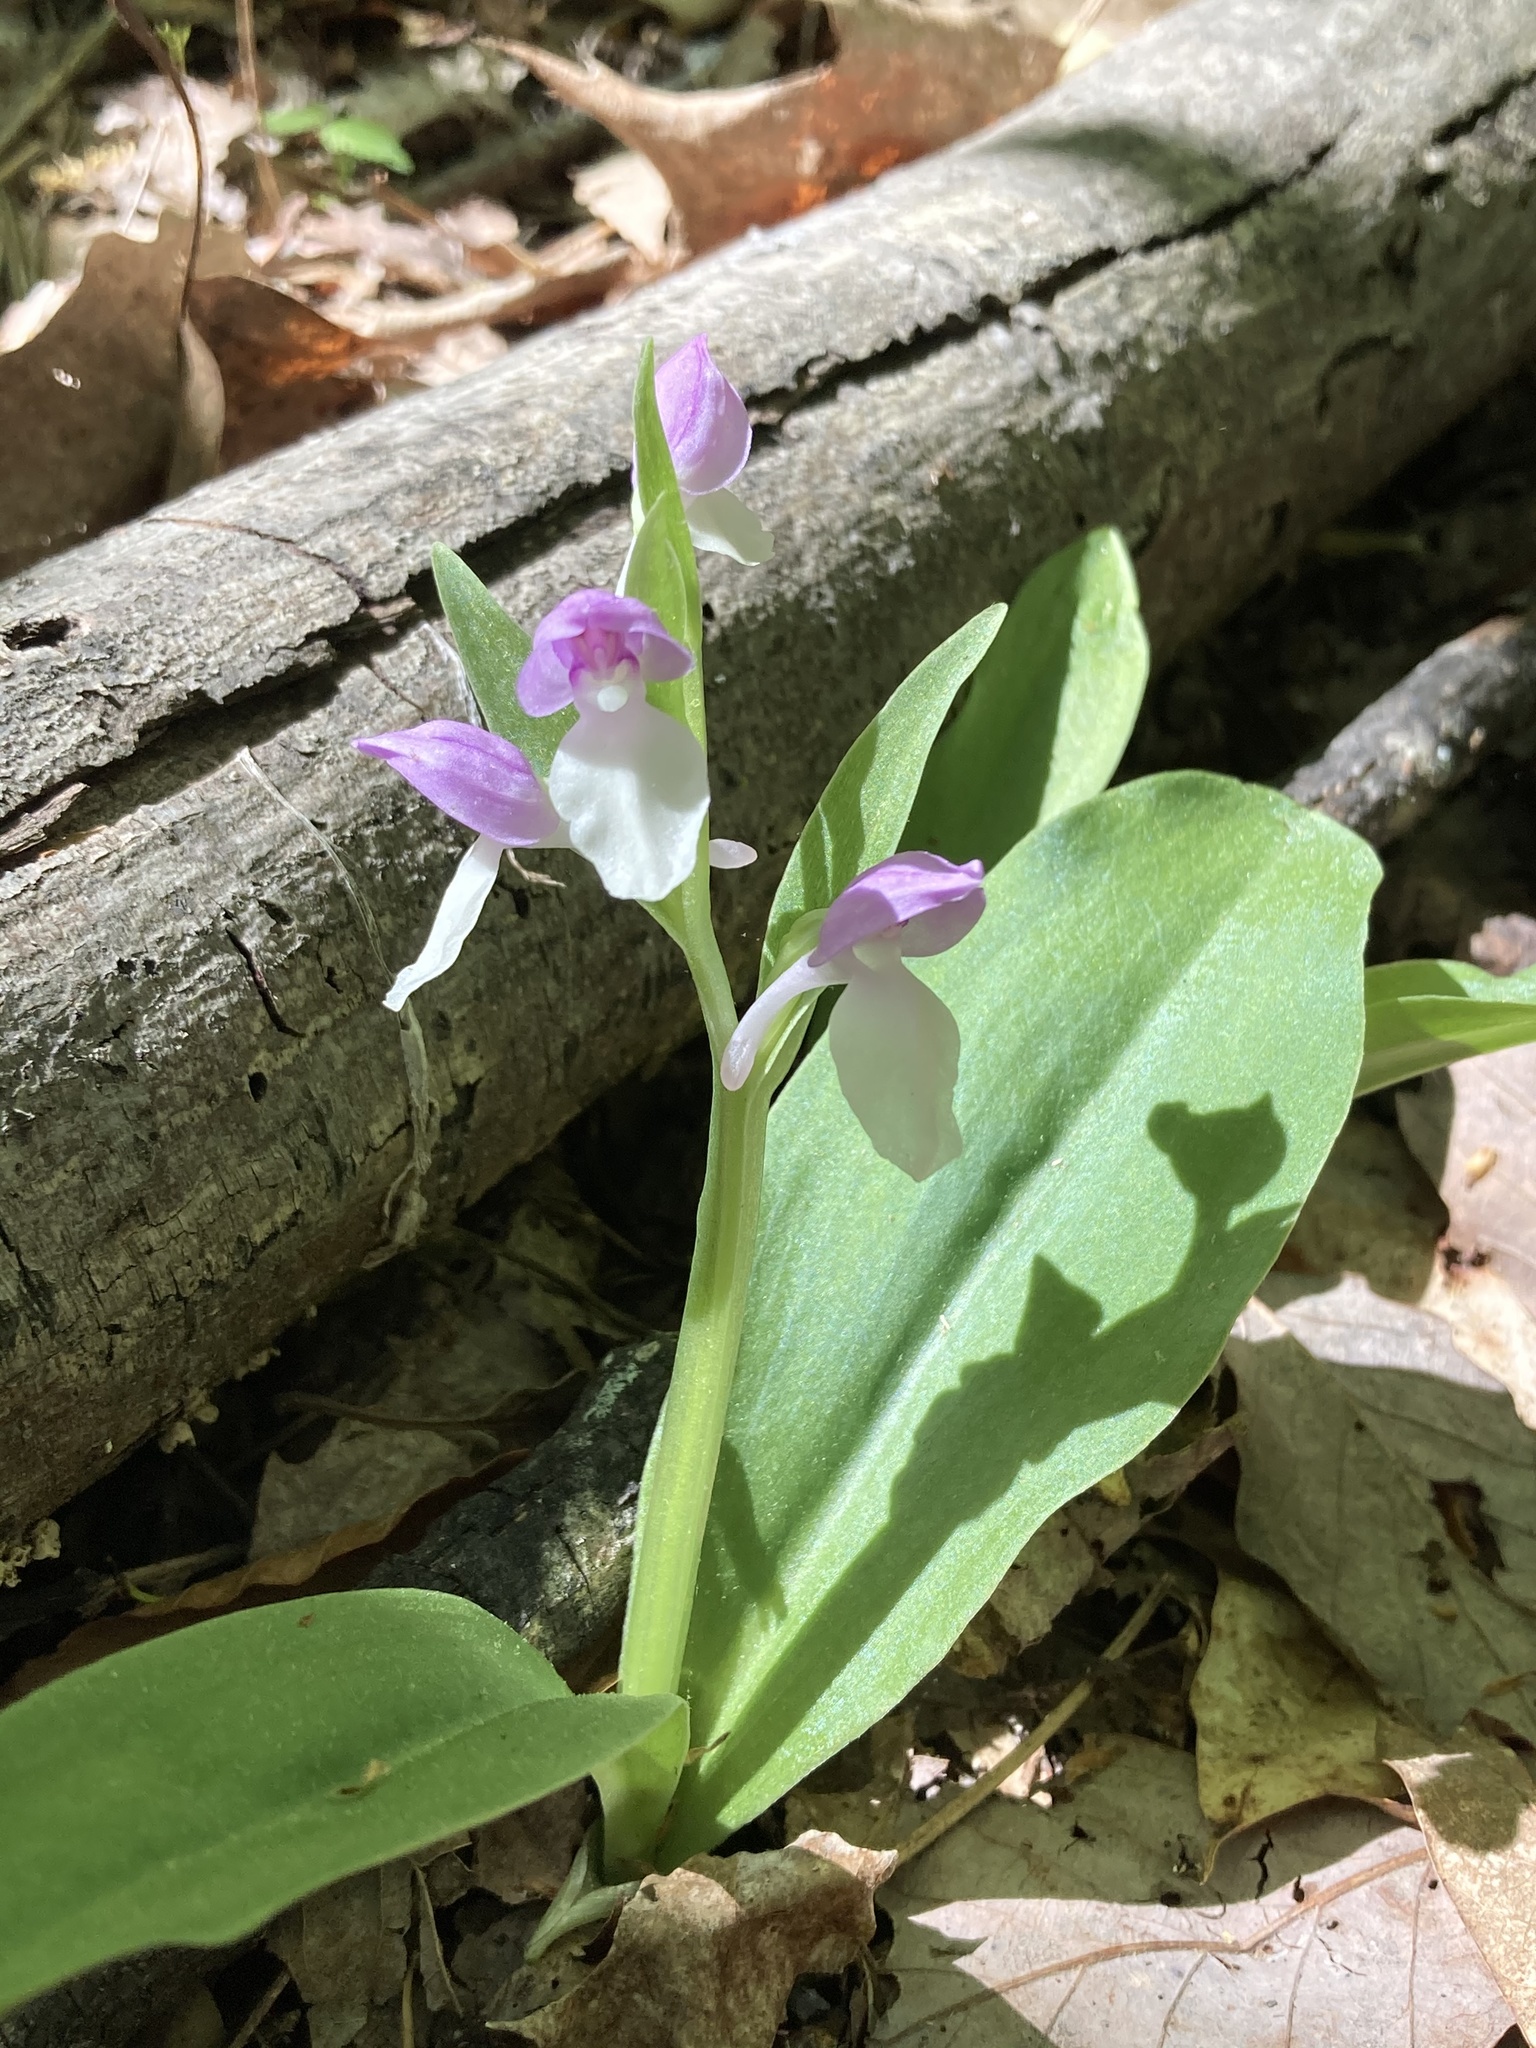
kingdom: Plantae
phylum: Tracheophyta
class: Liliopsida
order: Asparagales
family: Orchidaceae
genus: Galearis
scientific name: Galearis spectabilis
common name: Purple-hooded orchis
